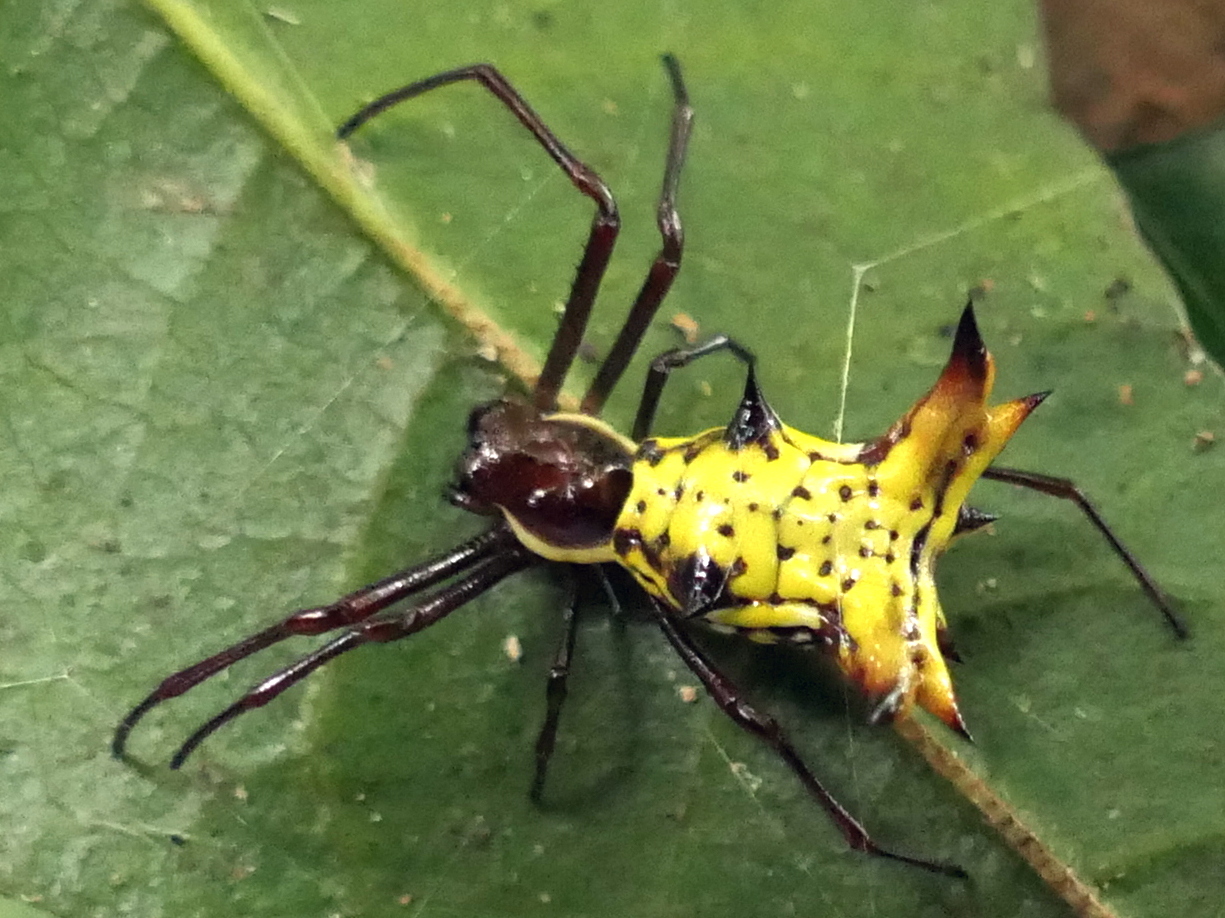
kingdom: Animalia
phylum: Arthropoda
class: Arachnida
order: Araneae
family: Araneidae
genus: Micrathena
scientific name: Micrathena fissispina
